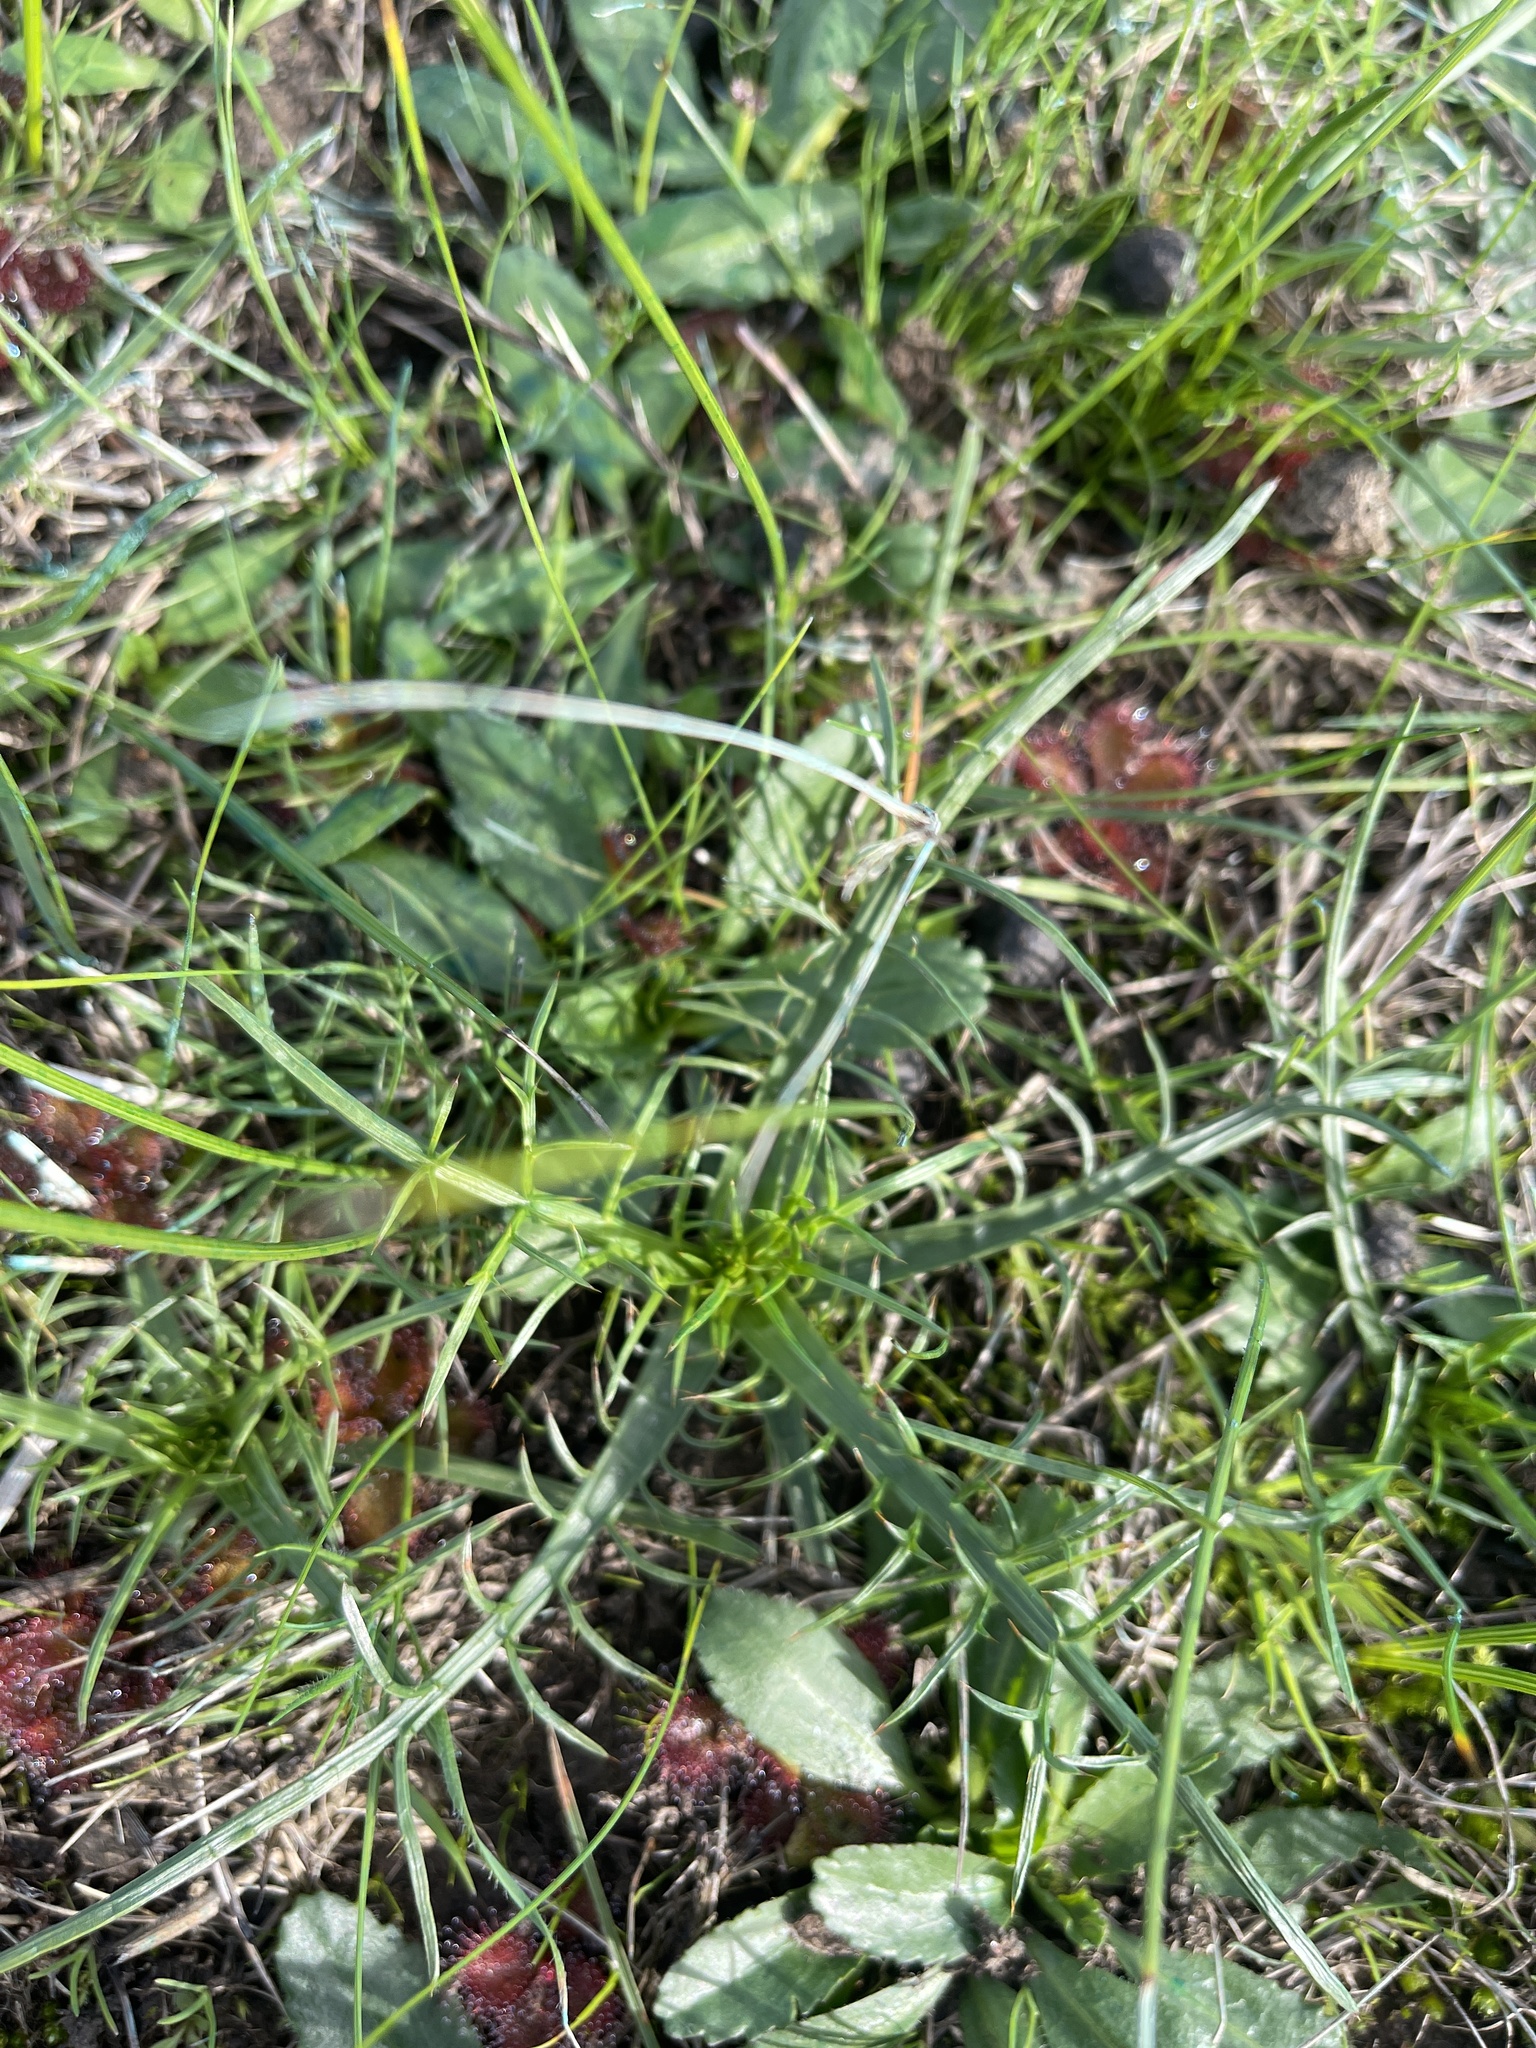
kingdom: Plantae
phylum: Tracheophyta
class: Magnoliopsida
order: Apiales
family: Apiaceae
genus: Eryngium
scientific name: Eryngium ovinum
